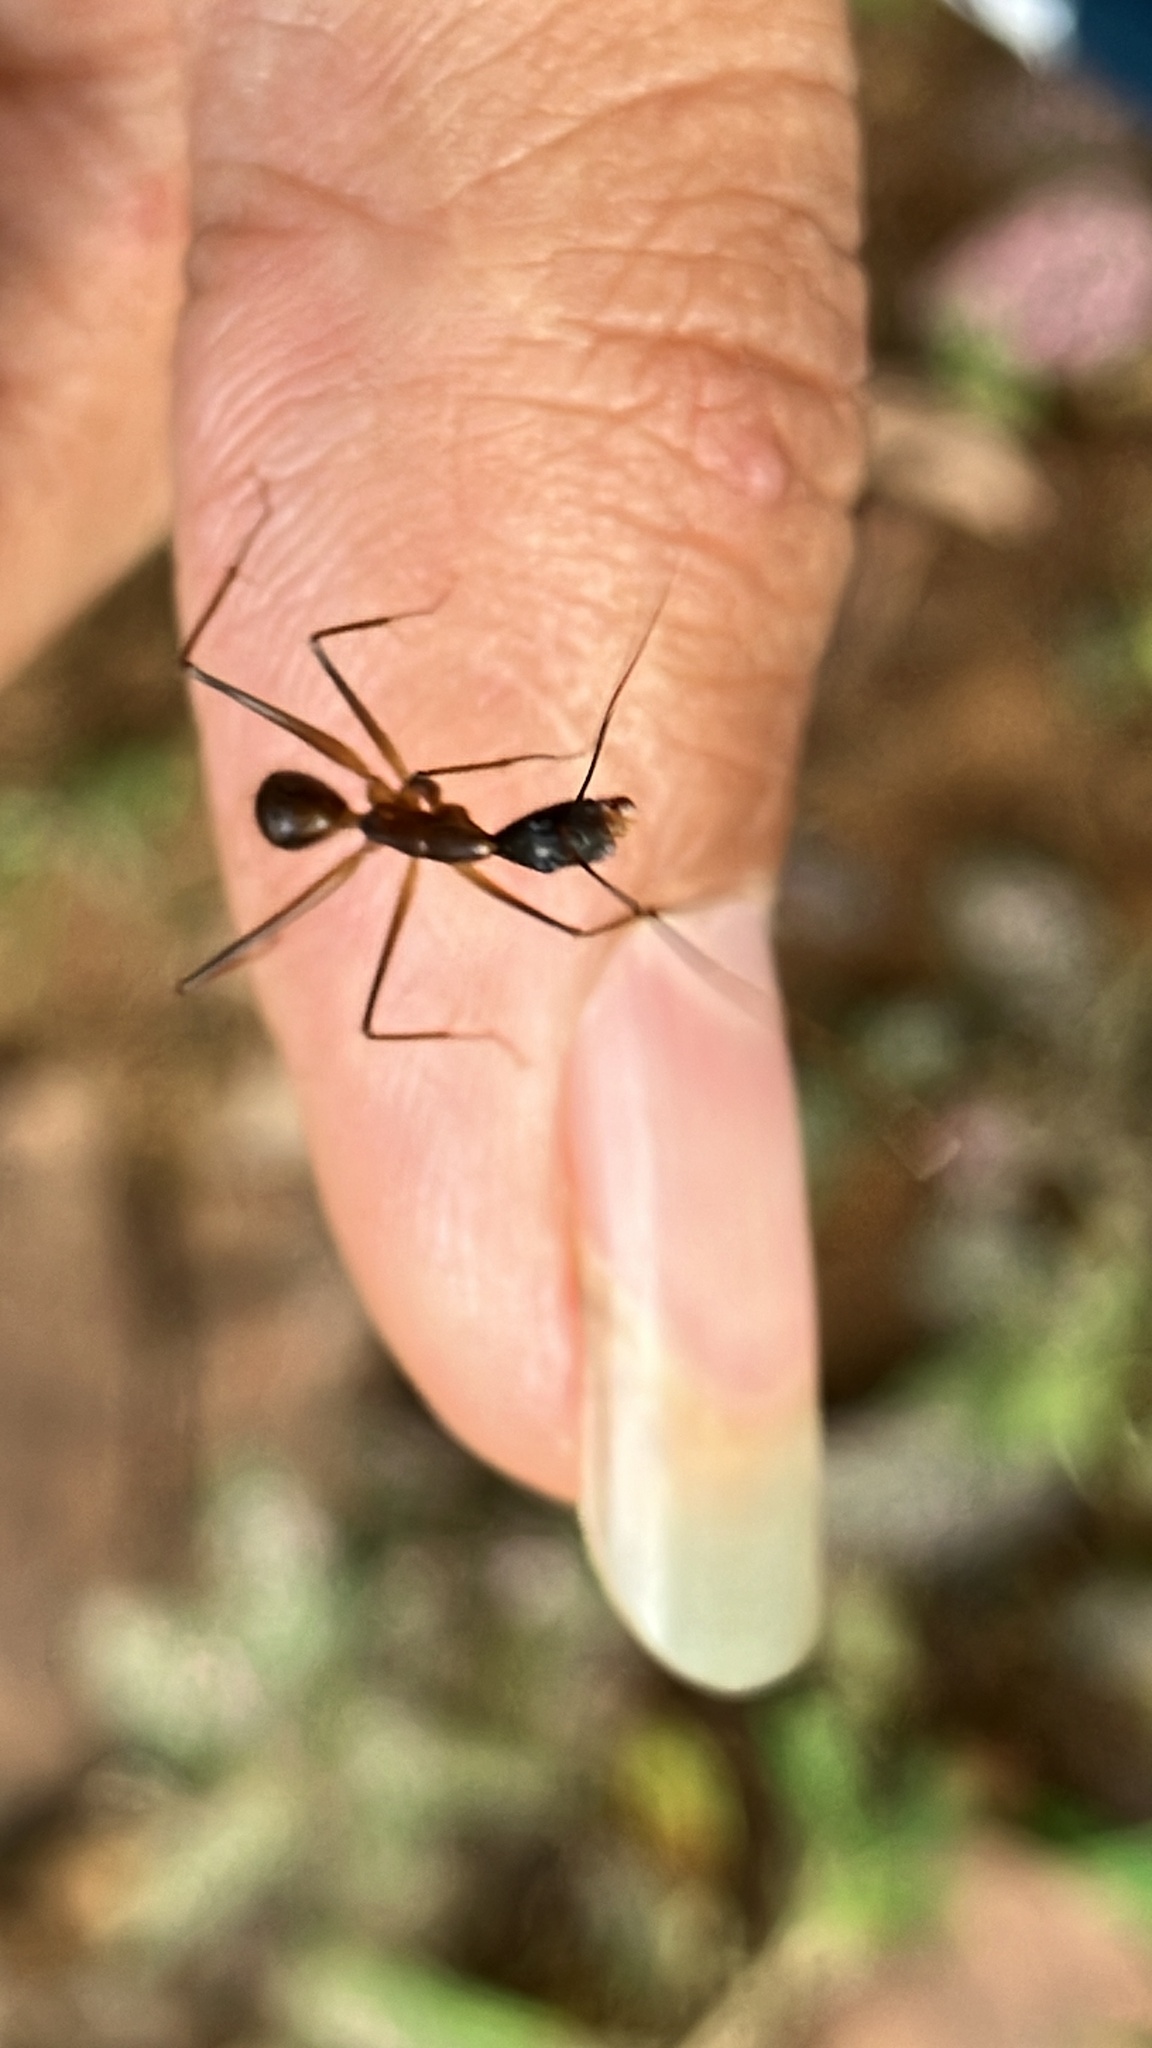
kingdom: Animalia
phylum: Arthropoda
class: Insecta
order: Hymenoptera
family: Formicidae
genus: Camponotus
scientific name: Camponotus simoni
